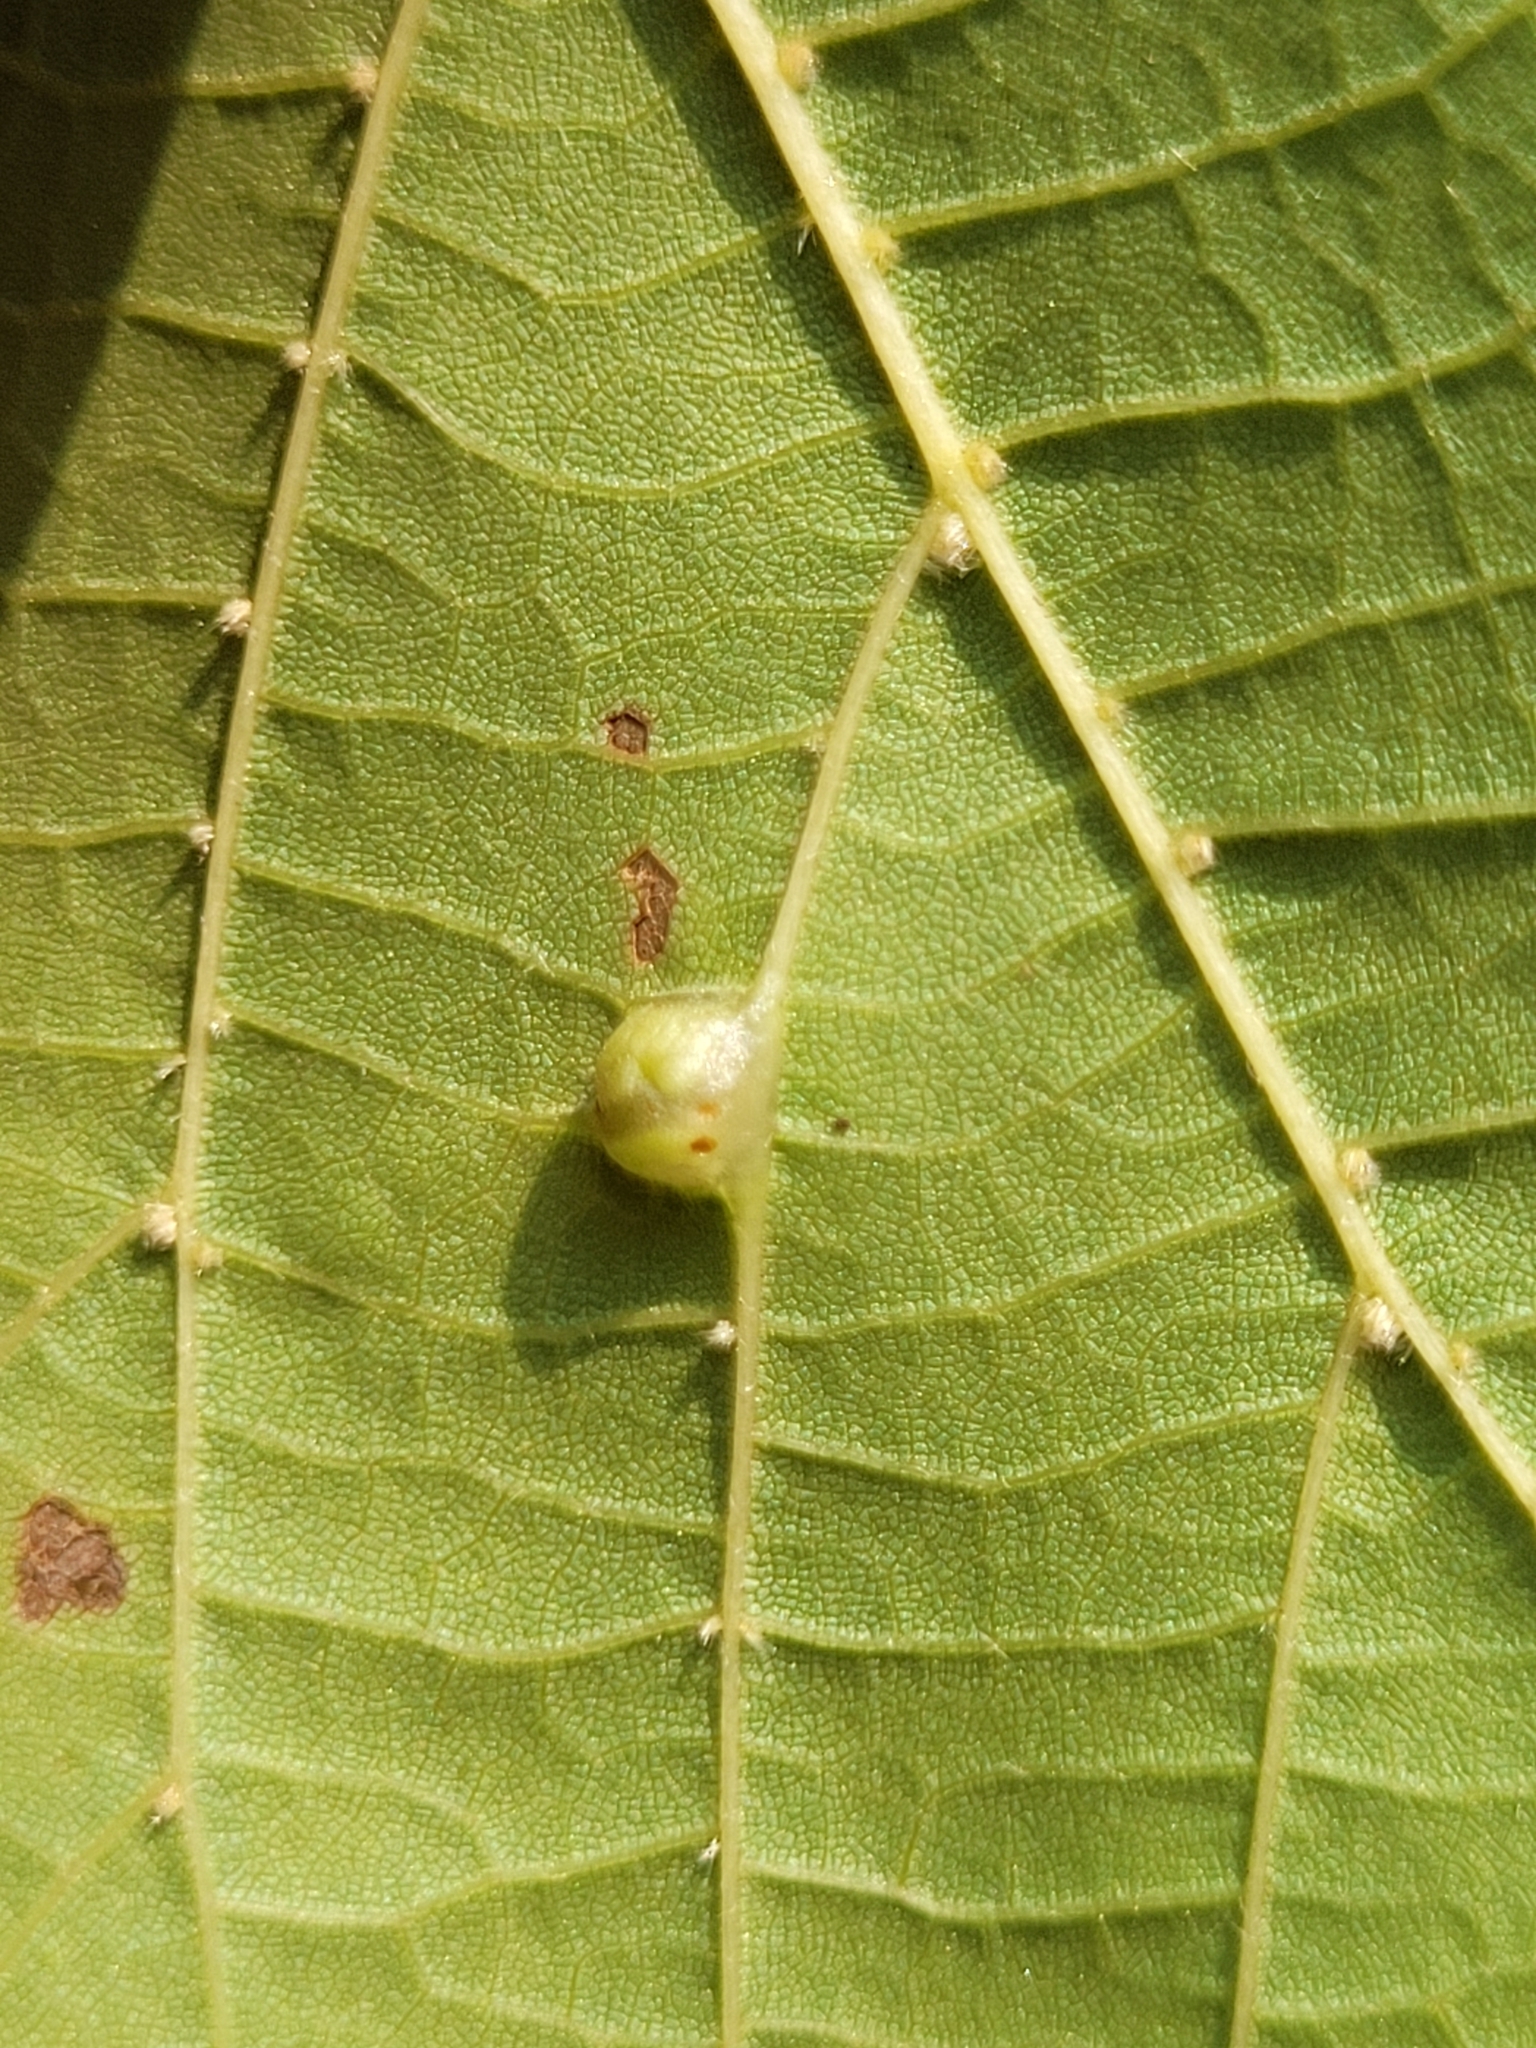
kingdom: Animalia
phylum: Arthropoda
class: Insecta
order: Diptera
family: Cecidomyiidae
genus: Contarinia
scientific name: Contarinia verrucicola
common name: Linden wart gall midge
